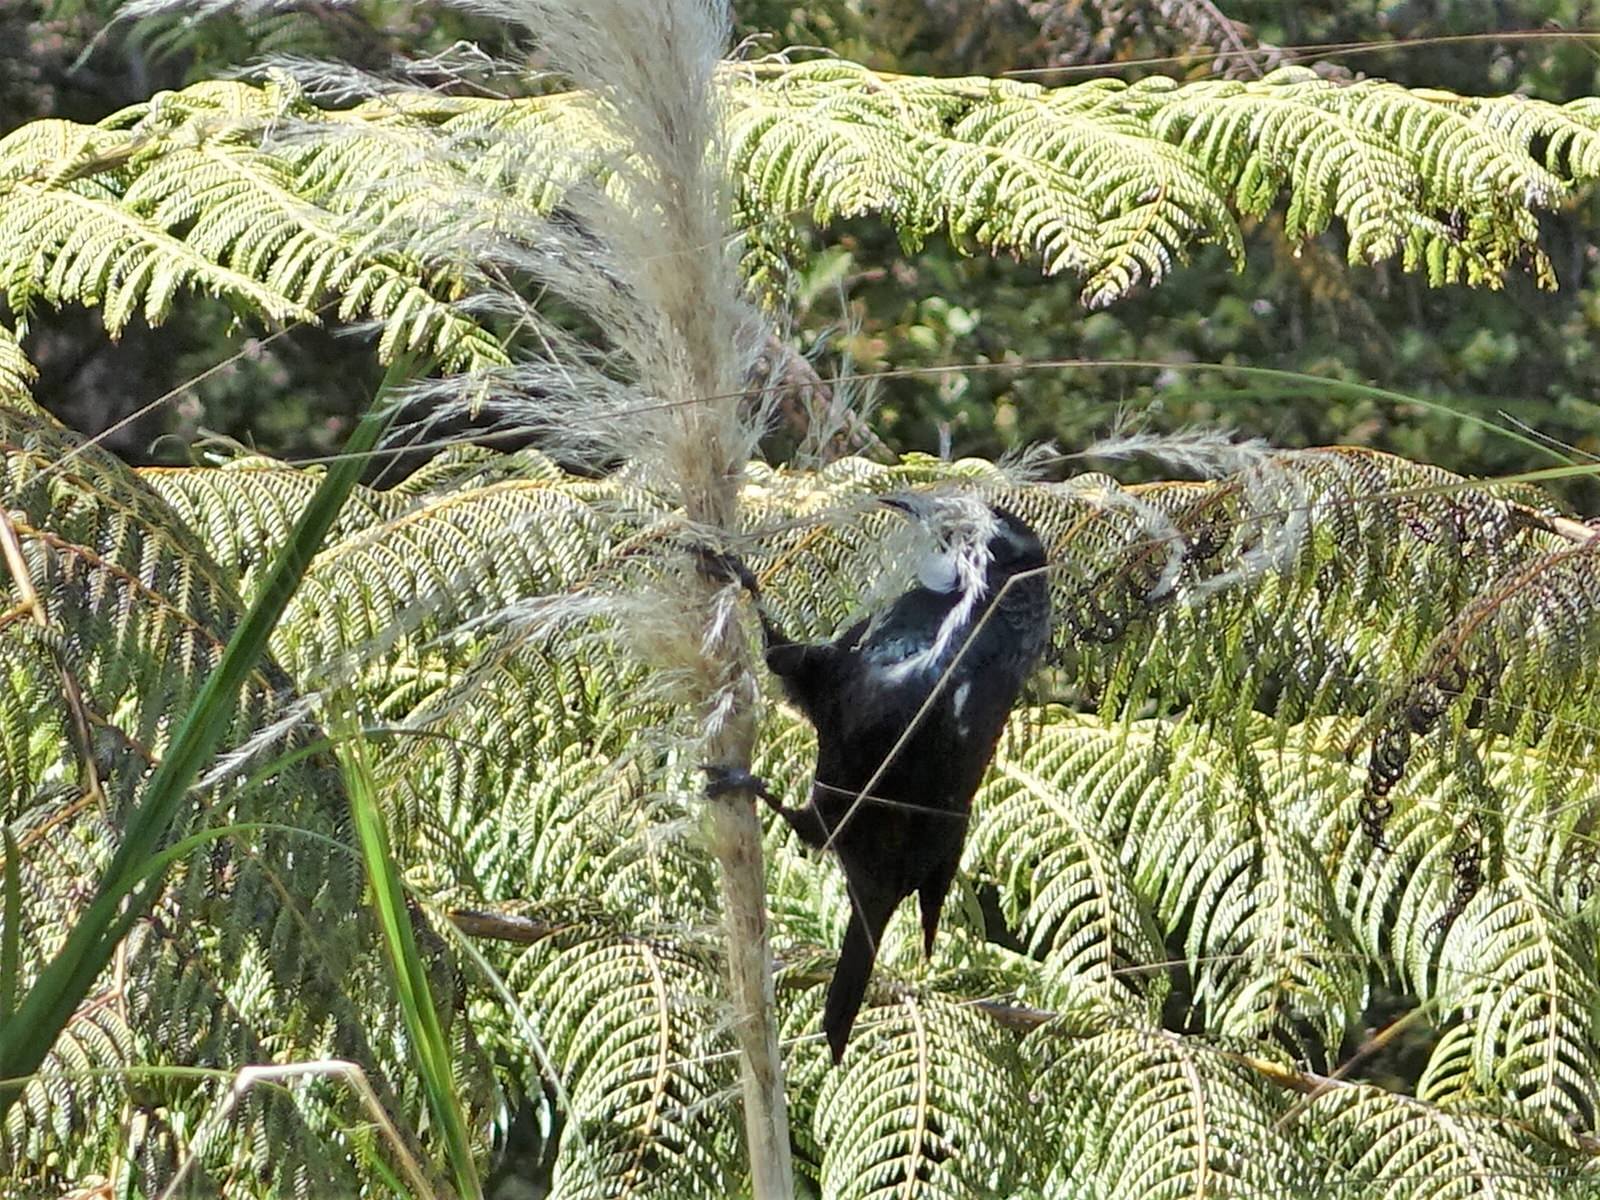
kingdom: Animalia
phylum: Chordata
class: Aves
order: Passeriformes
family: Meliphagidae
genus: Prosthemadera
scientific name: Prosthemadera novaeseelandiae
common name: Tui
